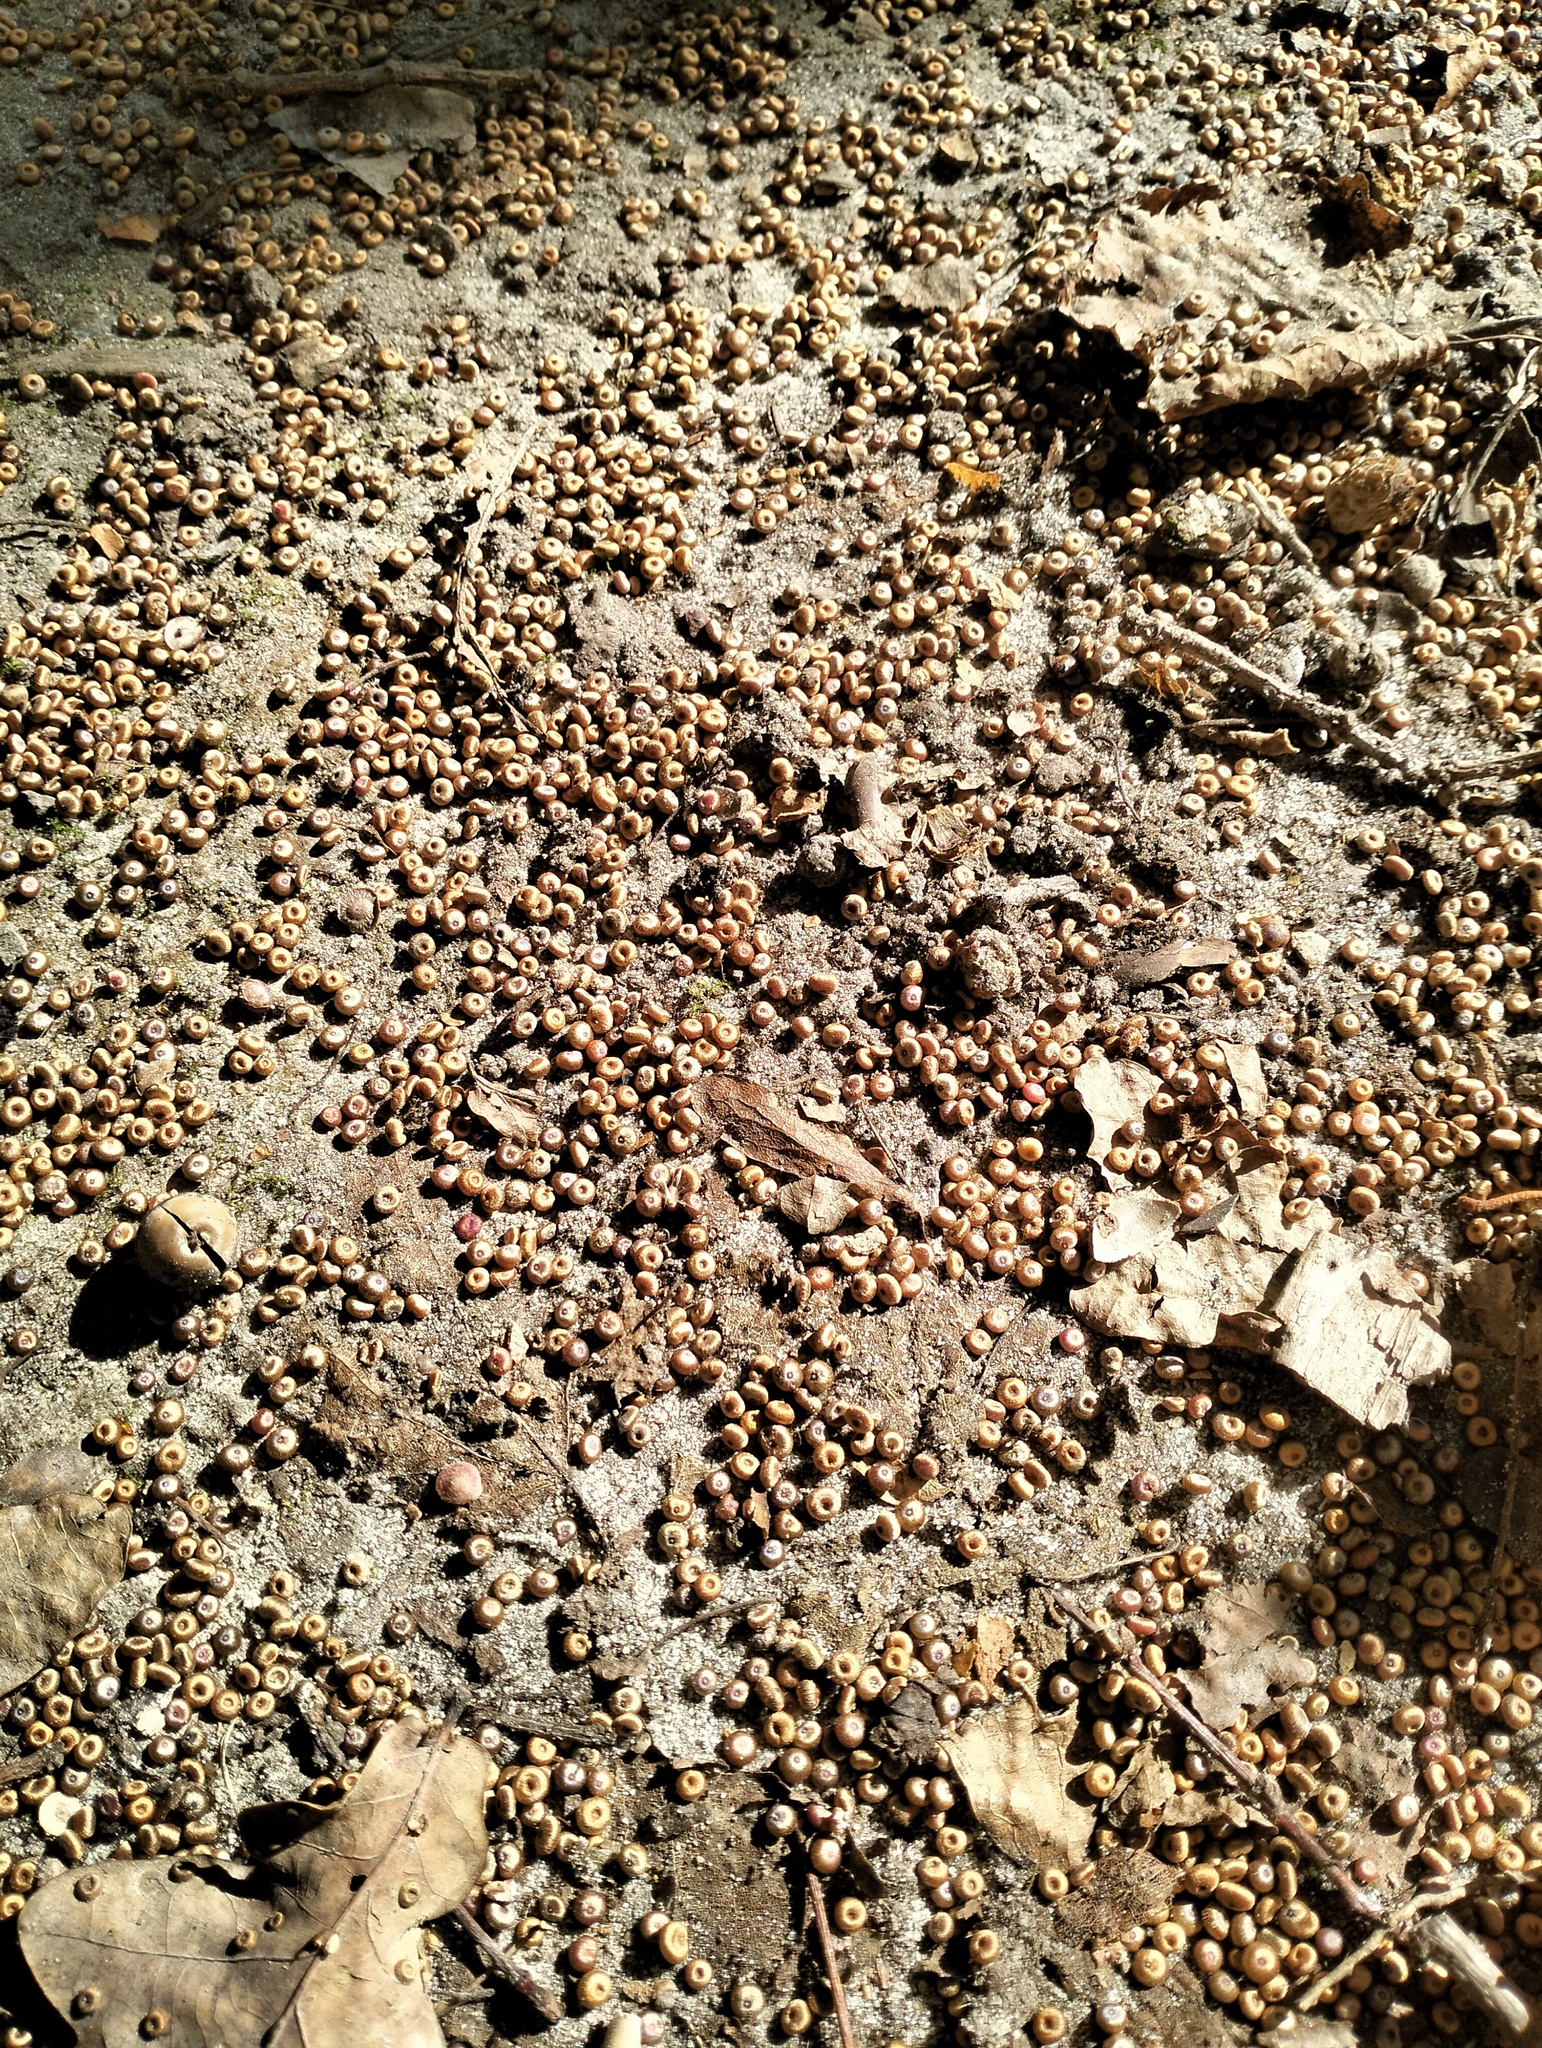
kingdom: Animalia
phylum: Arthropoda
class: Insecta
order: Hymenoptera
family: Cynipidae
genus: Neuroterus
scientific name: Neuroterus numismalis
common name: Silk-button spangle gall
